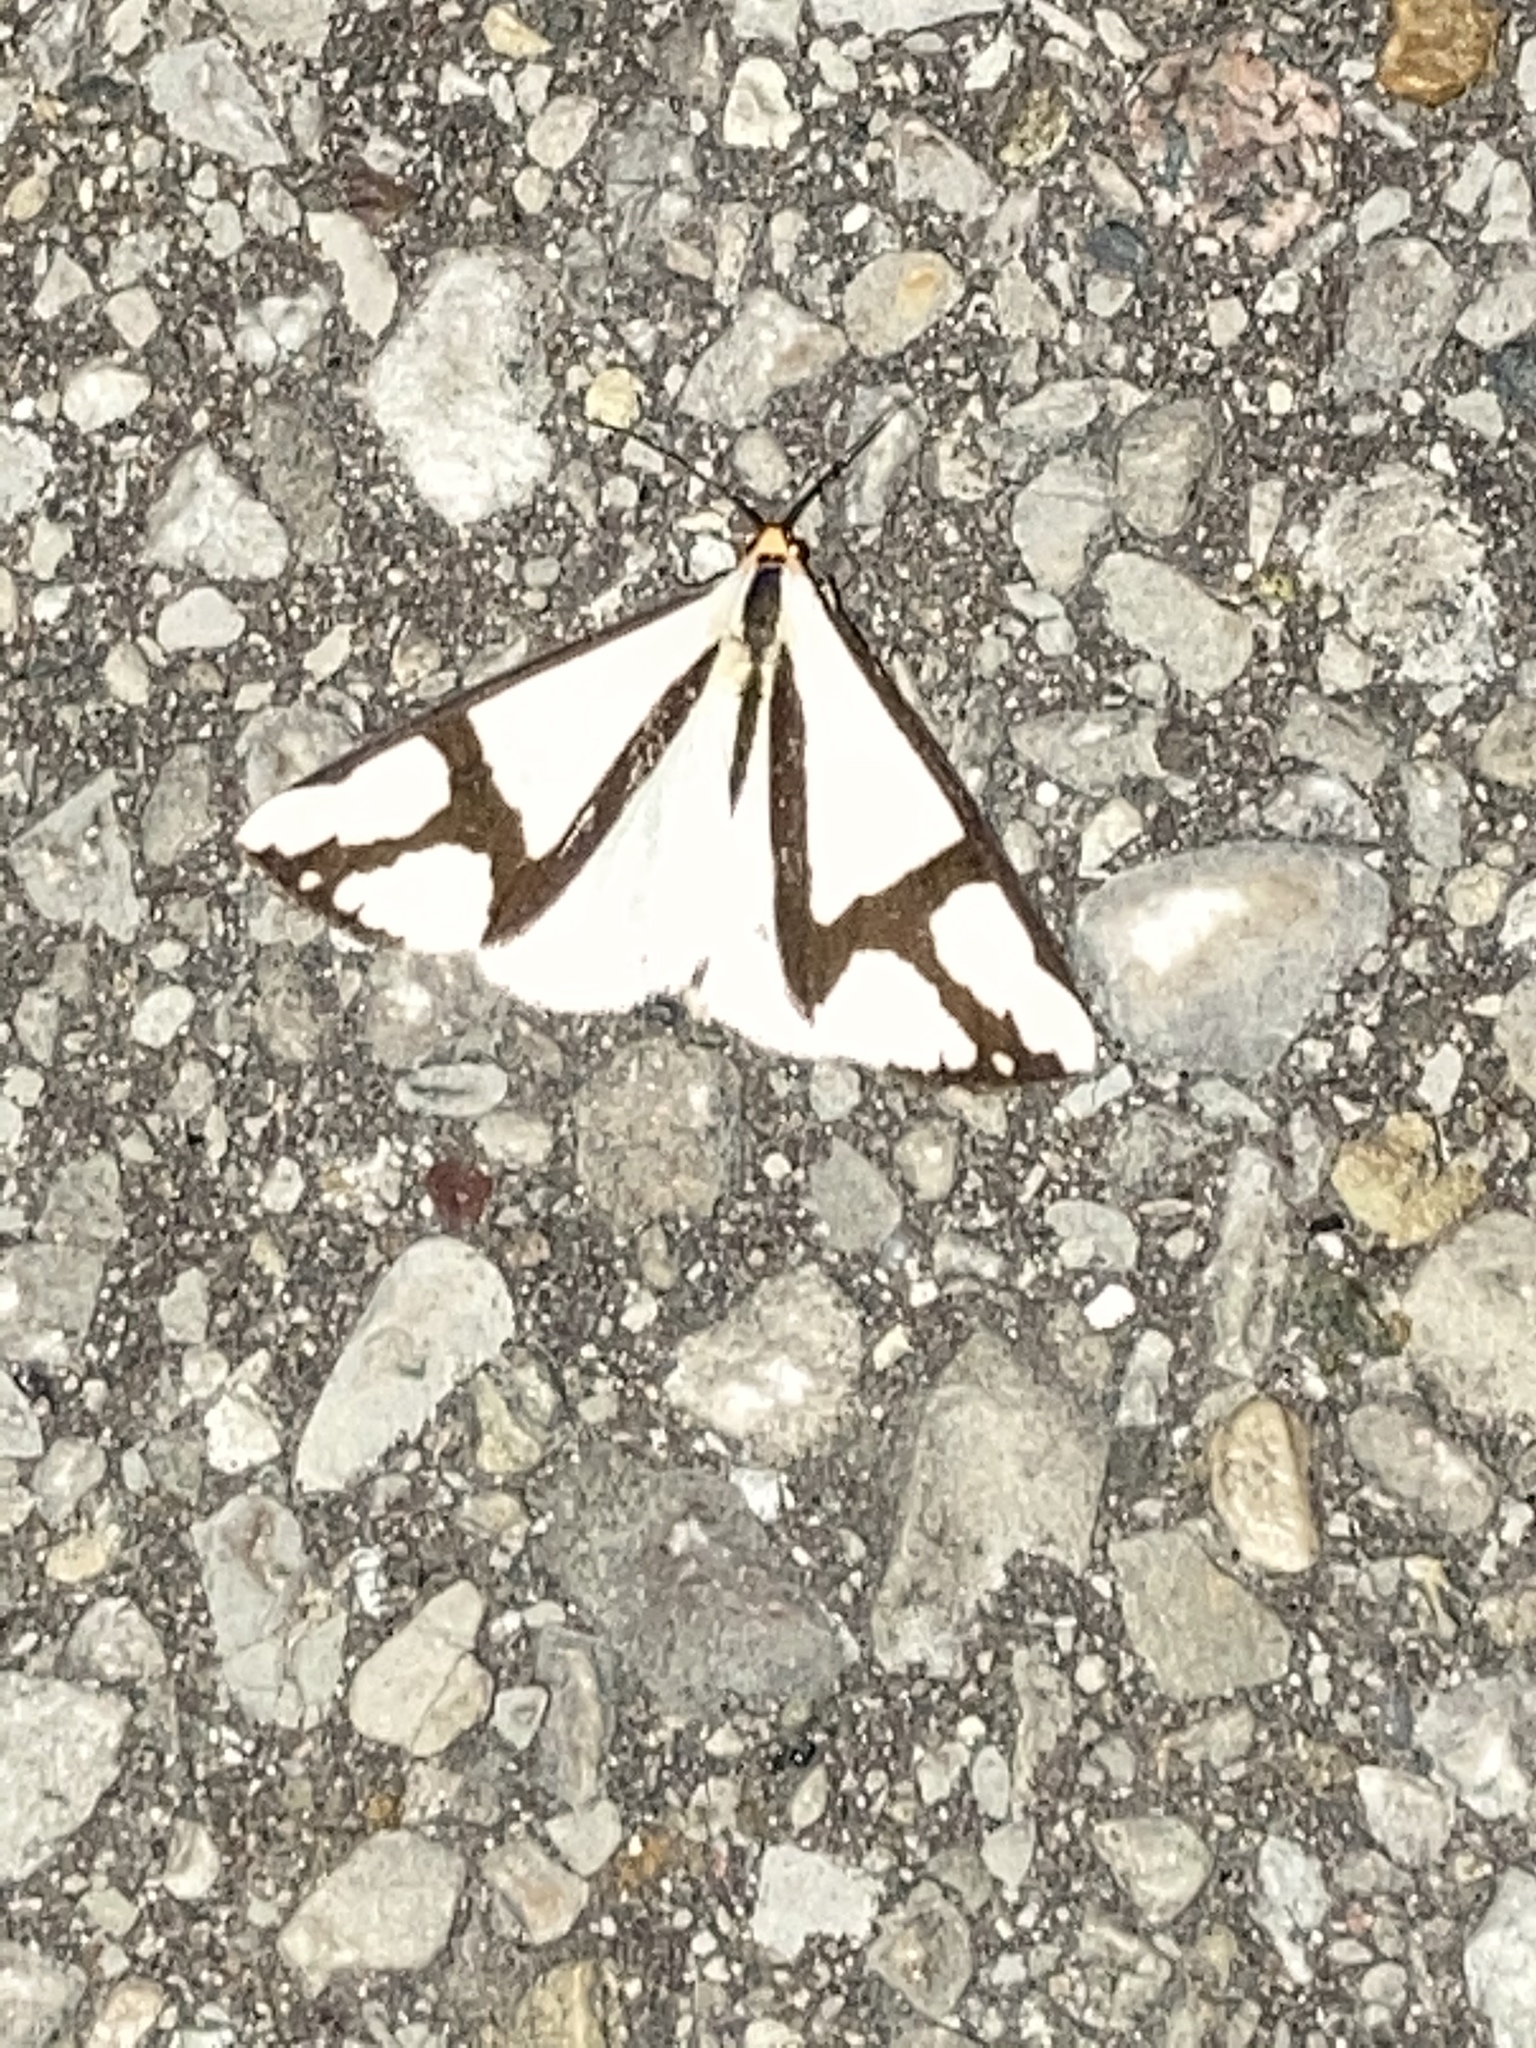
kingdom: Animalia
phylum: Arthropoda
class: Insecta
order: Lepidoptera
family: Erebidae
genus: Haploa
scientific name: Haploa contigua
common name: Neighbor moth
